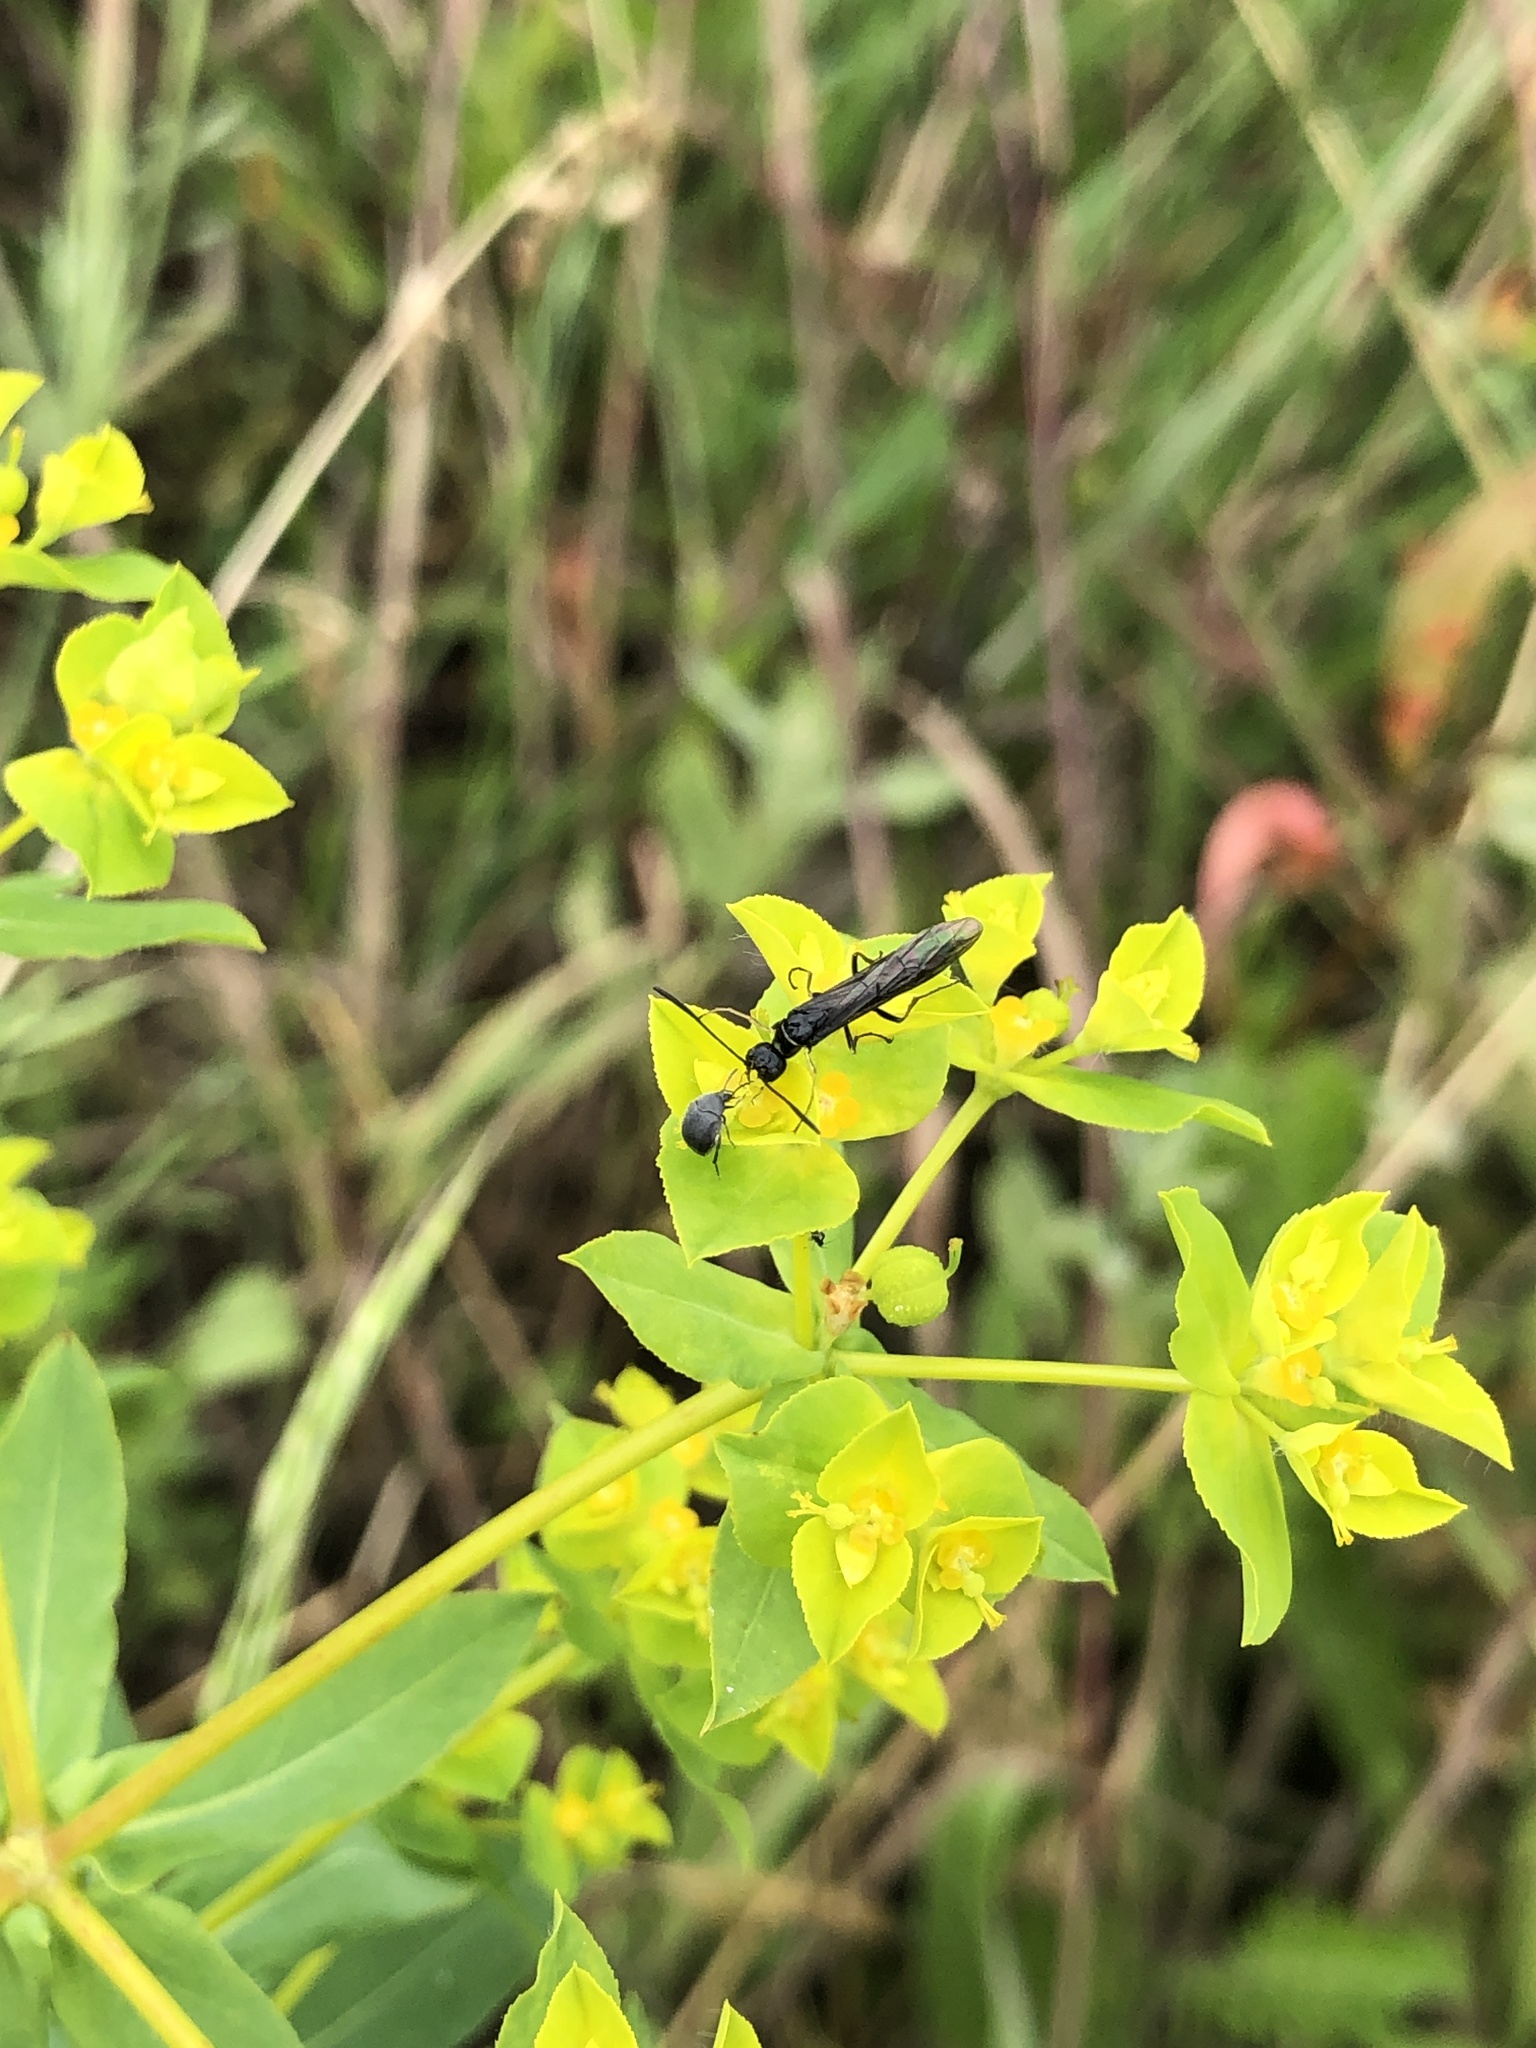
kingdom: Animalia
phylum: Arthropoda
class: Insecta
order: Hymenoptera
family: Cephidae
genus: Trachelus
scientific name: Trachelus tabidus
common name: Wasp
